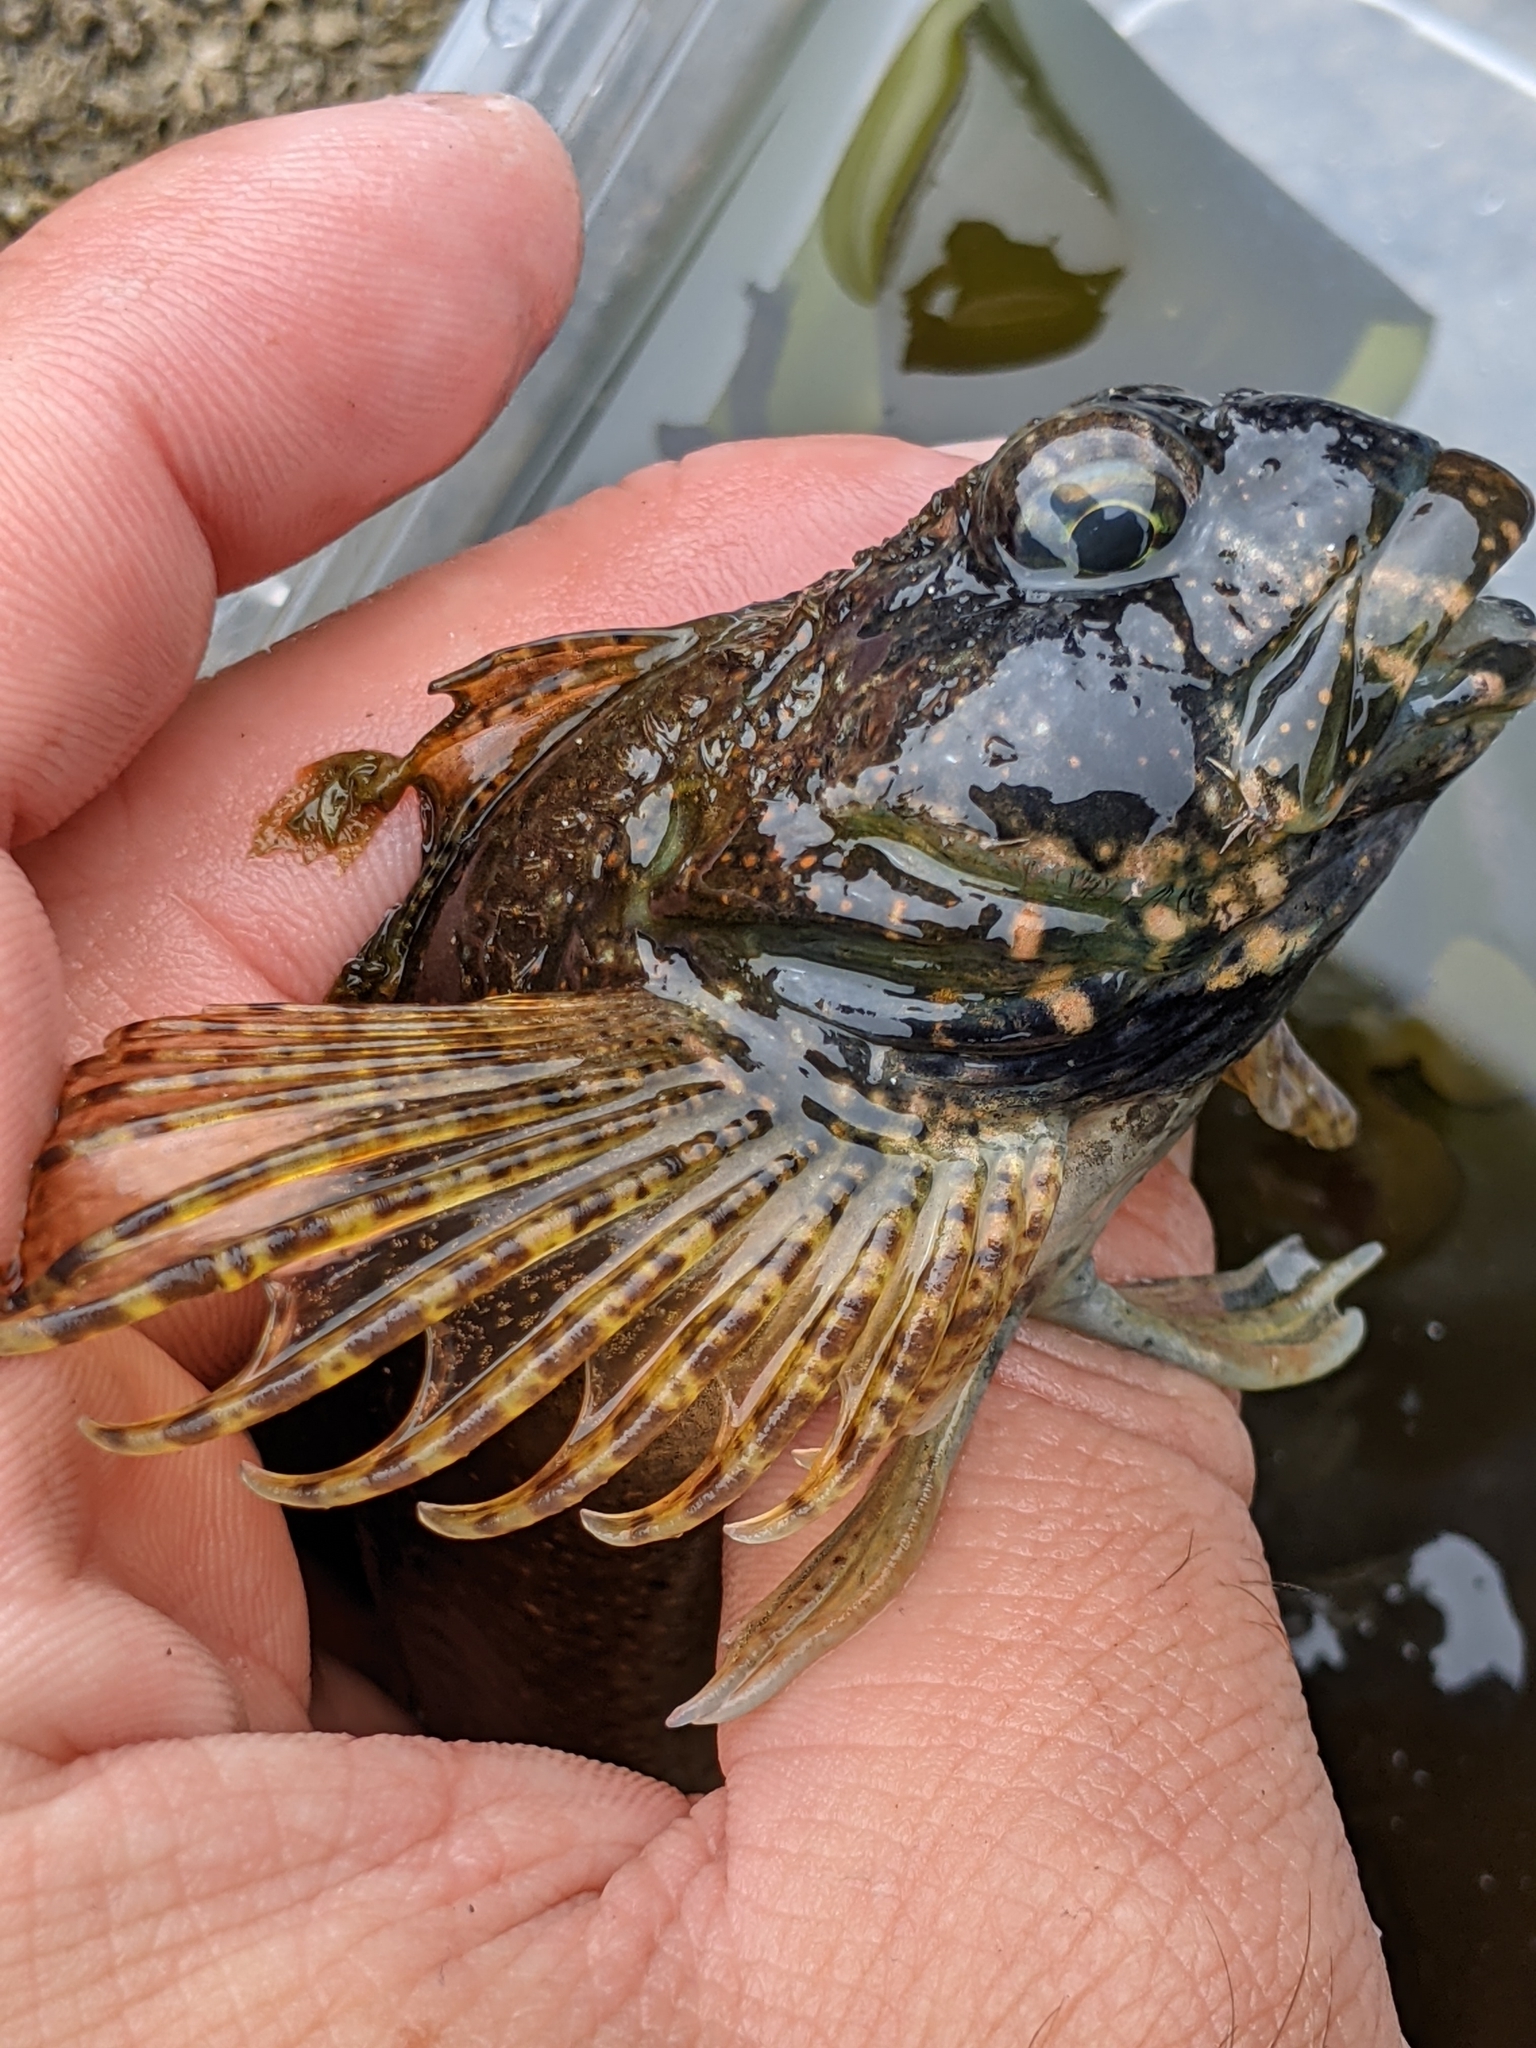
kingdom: Animalia
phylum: Chordata
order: Scorpaeniformes
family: Cottidae
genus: Clinocottus
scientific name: Clinocottus analis
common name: Woolly sculpin
